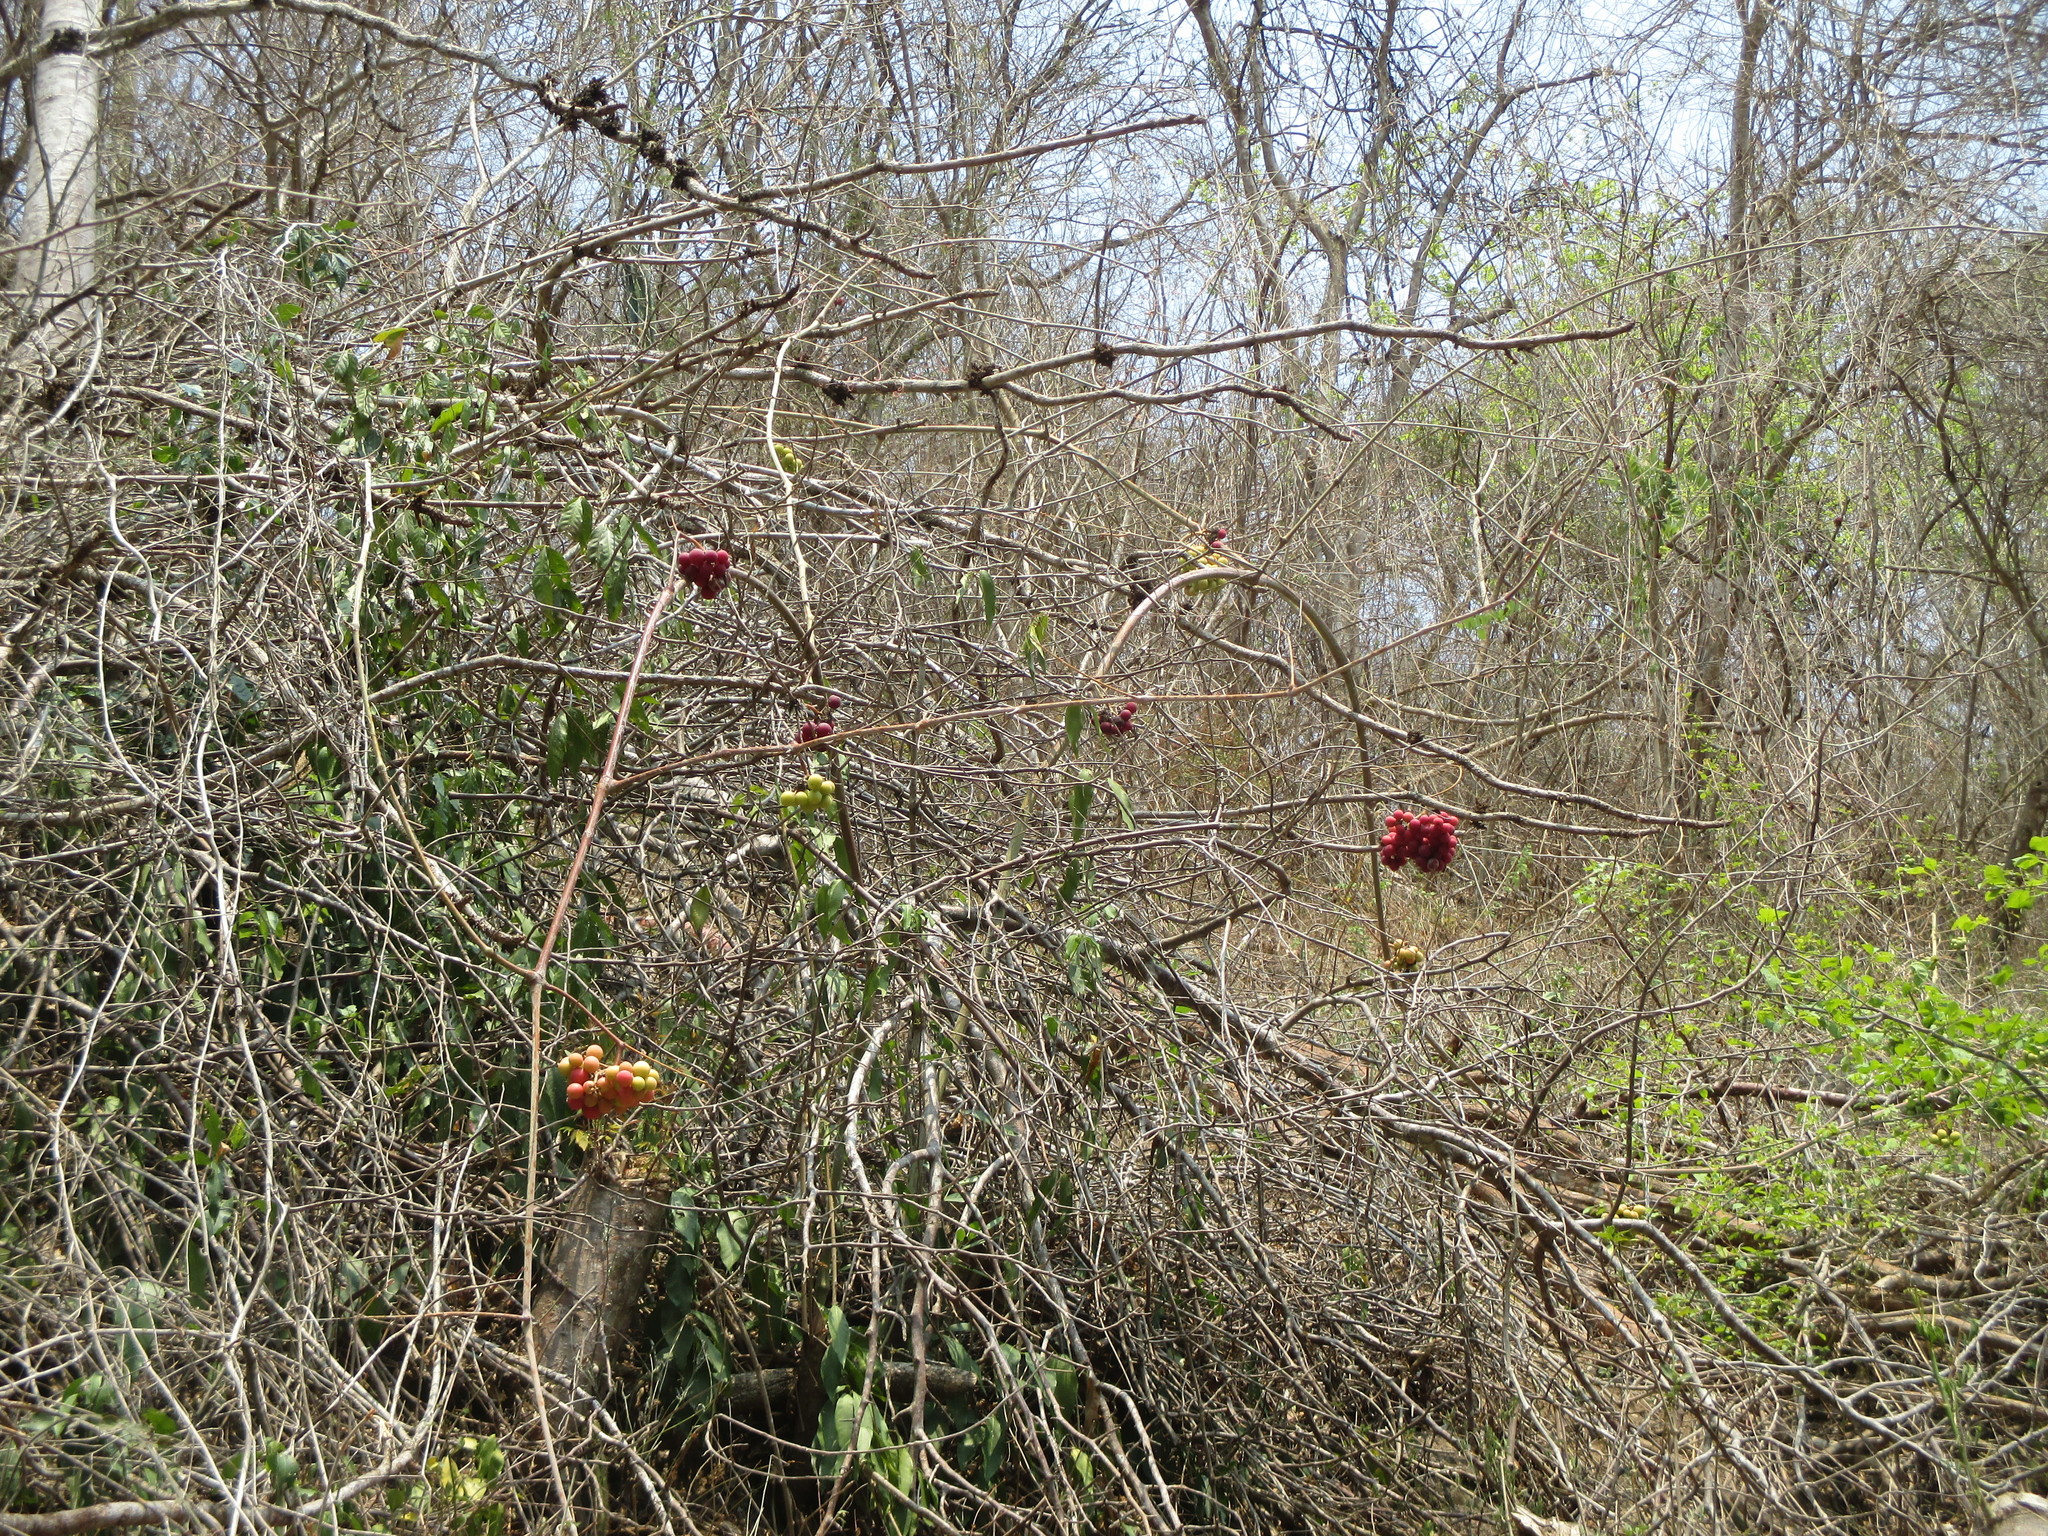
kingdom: Plantae
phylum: Tracheophyta
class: Magnoliopsida
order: Vitales
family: Vitaceae
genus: Ampelocissus
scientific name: Ampelocissus acapulcensis
